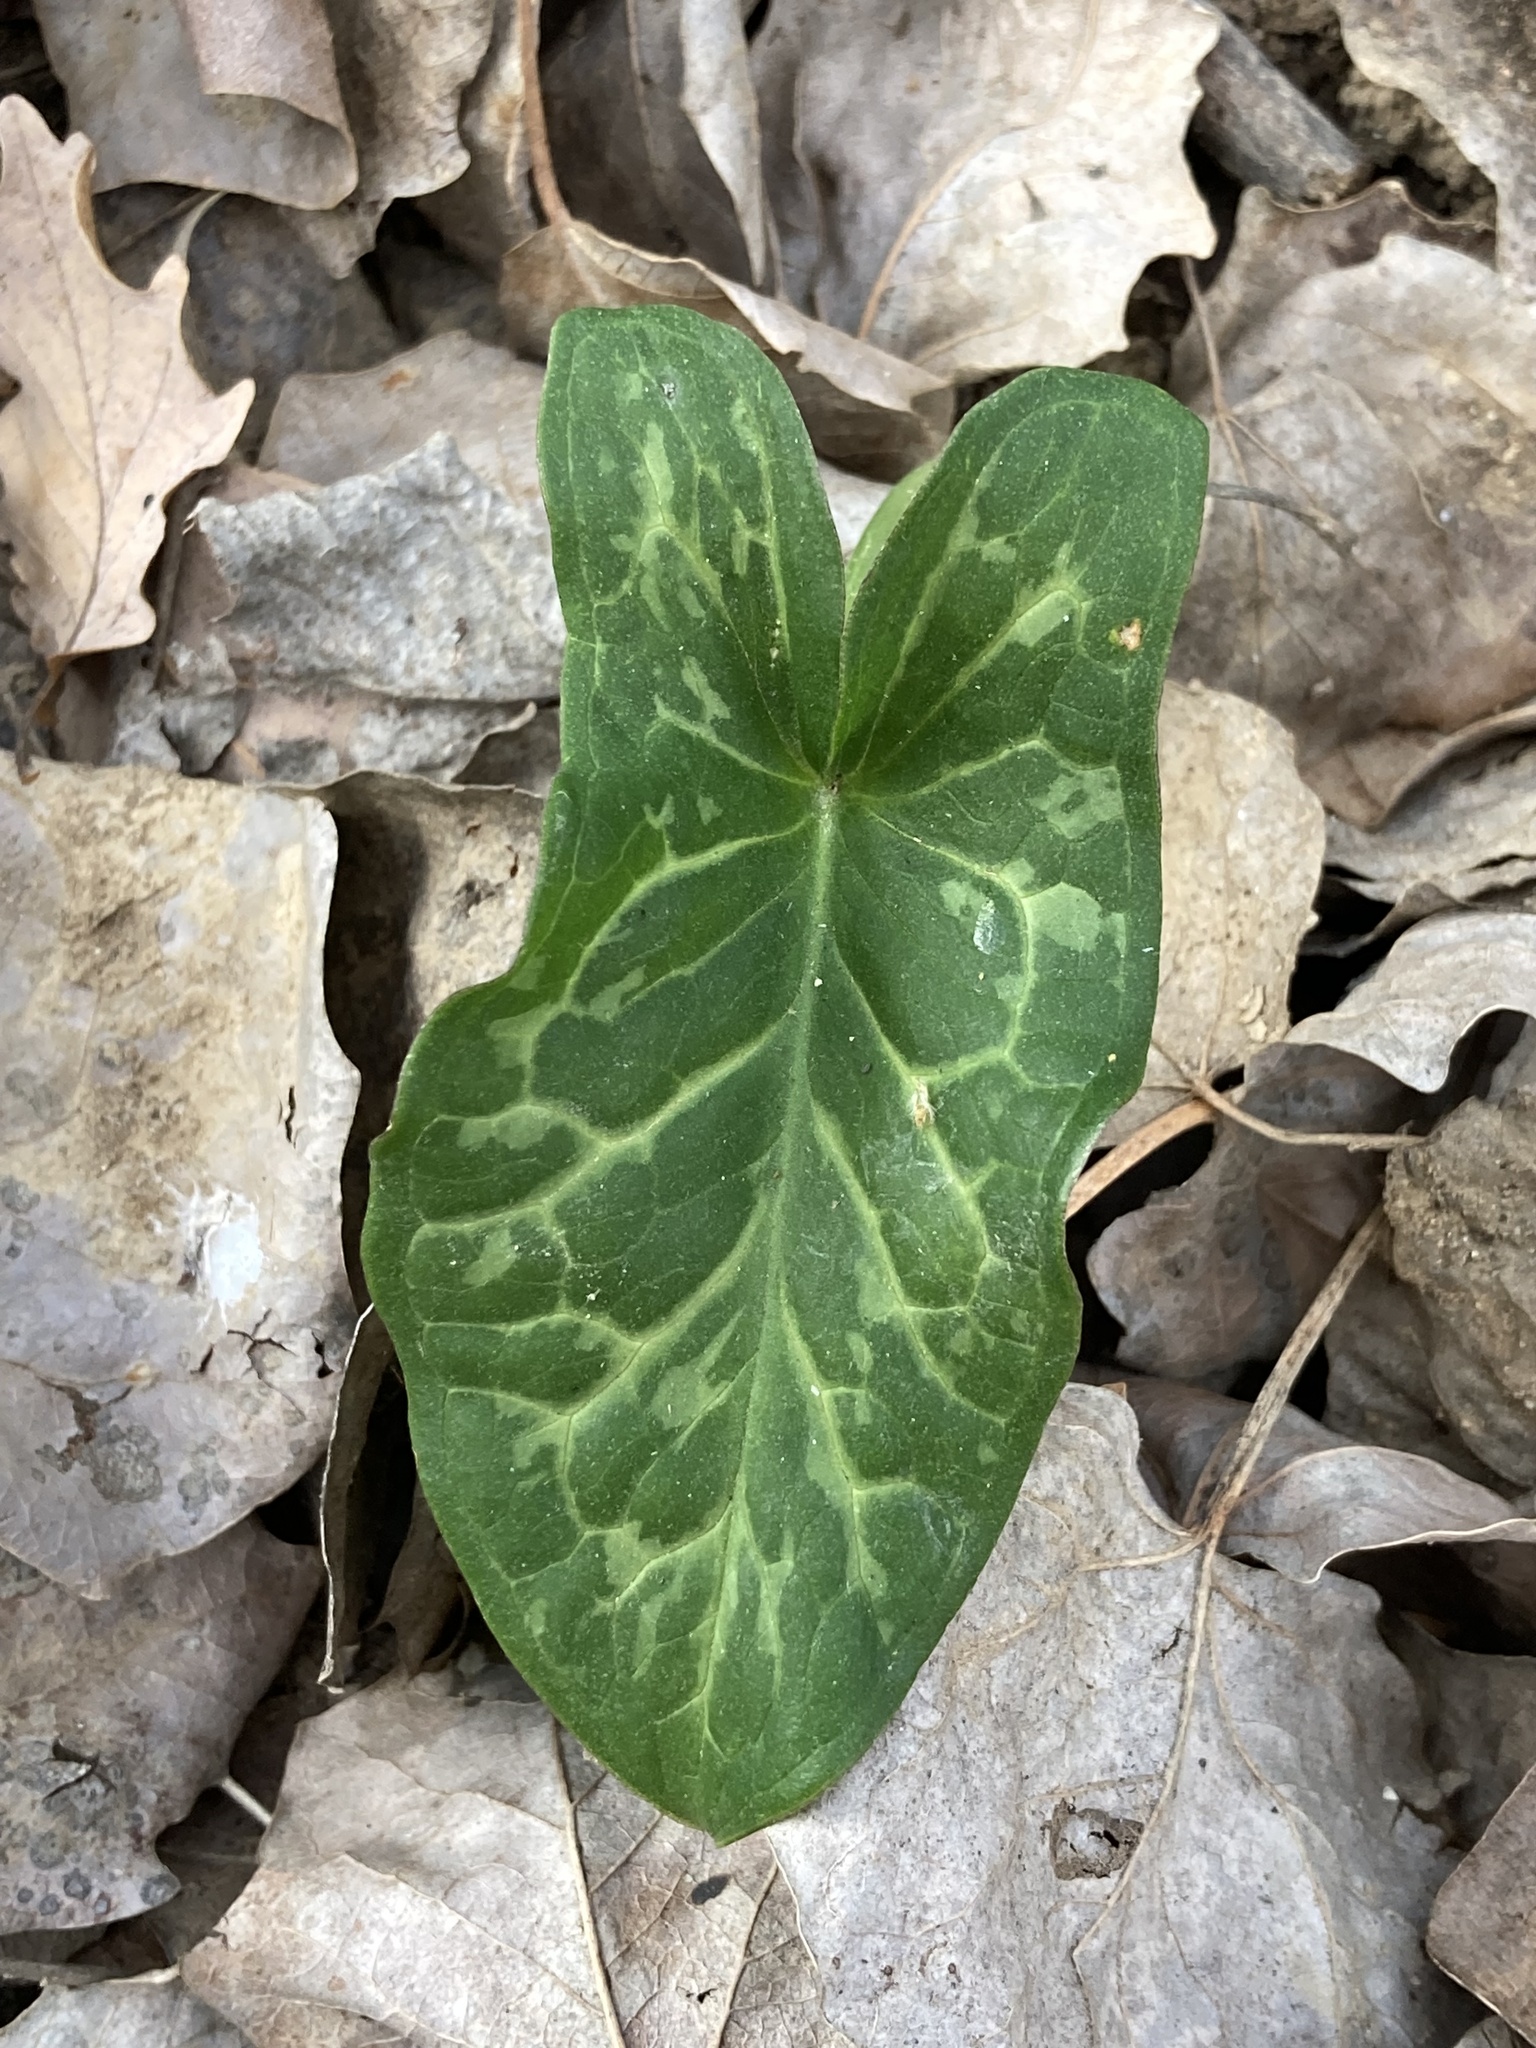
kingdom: Plantae
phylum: Tracheophyta
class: Liliopsida
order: Alismatales
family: Araceae
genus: Arum
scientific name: Arum italicum
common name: Italian lords-and-ladies
